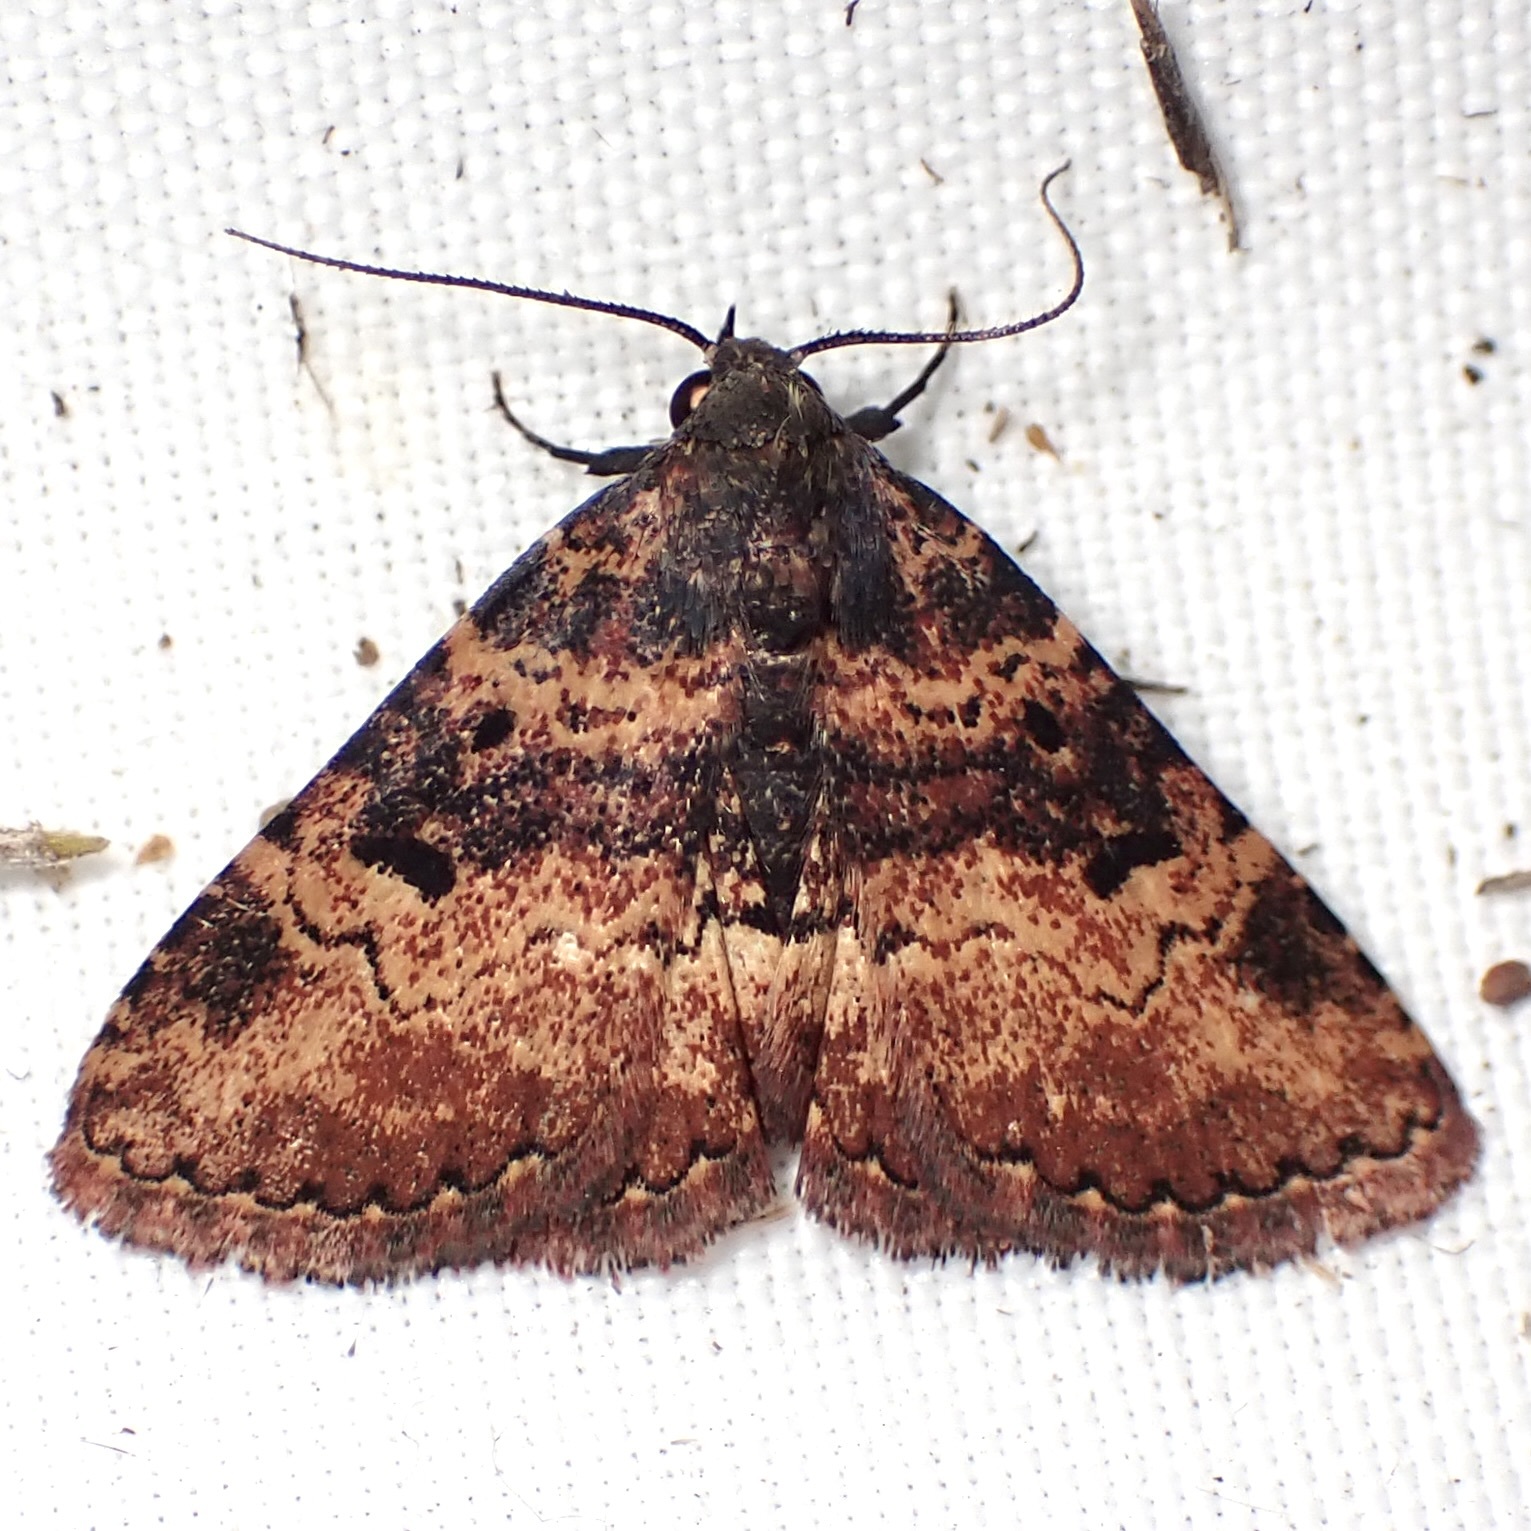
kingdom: Animalia
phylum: Arthropoda
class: Insecta
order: Lepidoptera
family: Erebidae
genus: Metalectra
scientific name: Metalectra edilis
